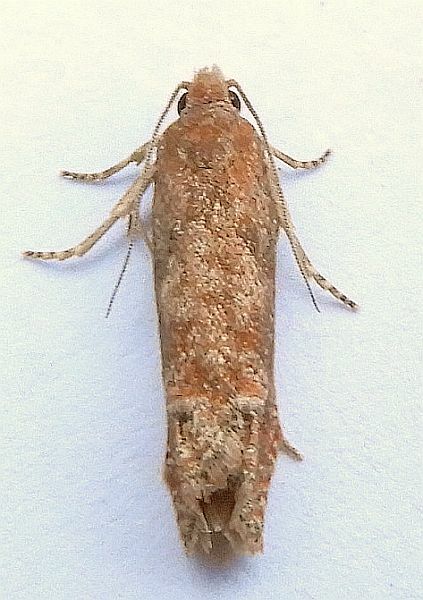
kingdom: Animalia
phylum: Arthropoda
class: Insecta
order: Lepidoptera
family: Tortricidae
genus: Pelochrista
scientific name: Pelochrista vagana
